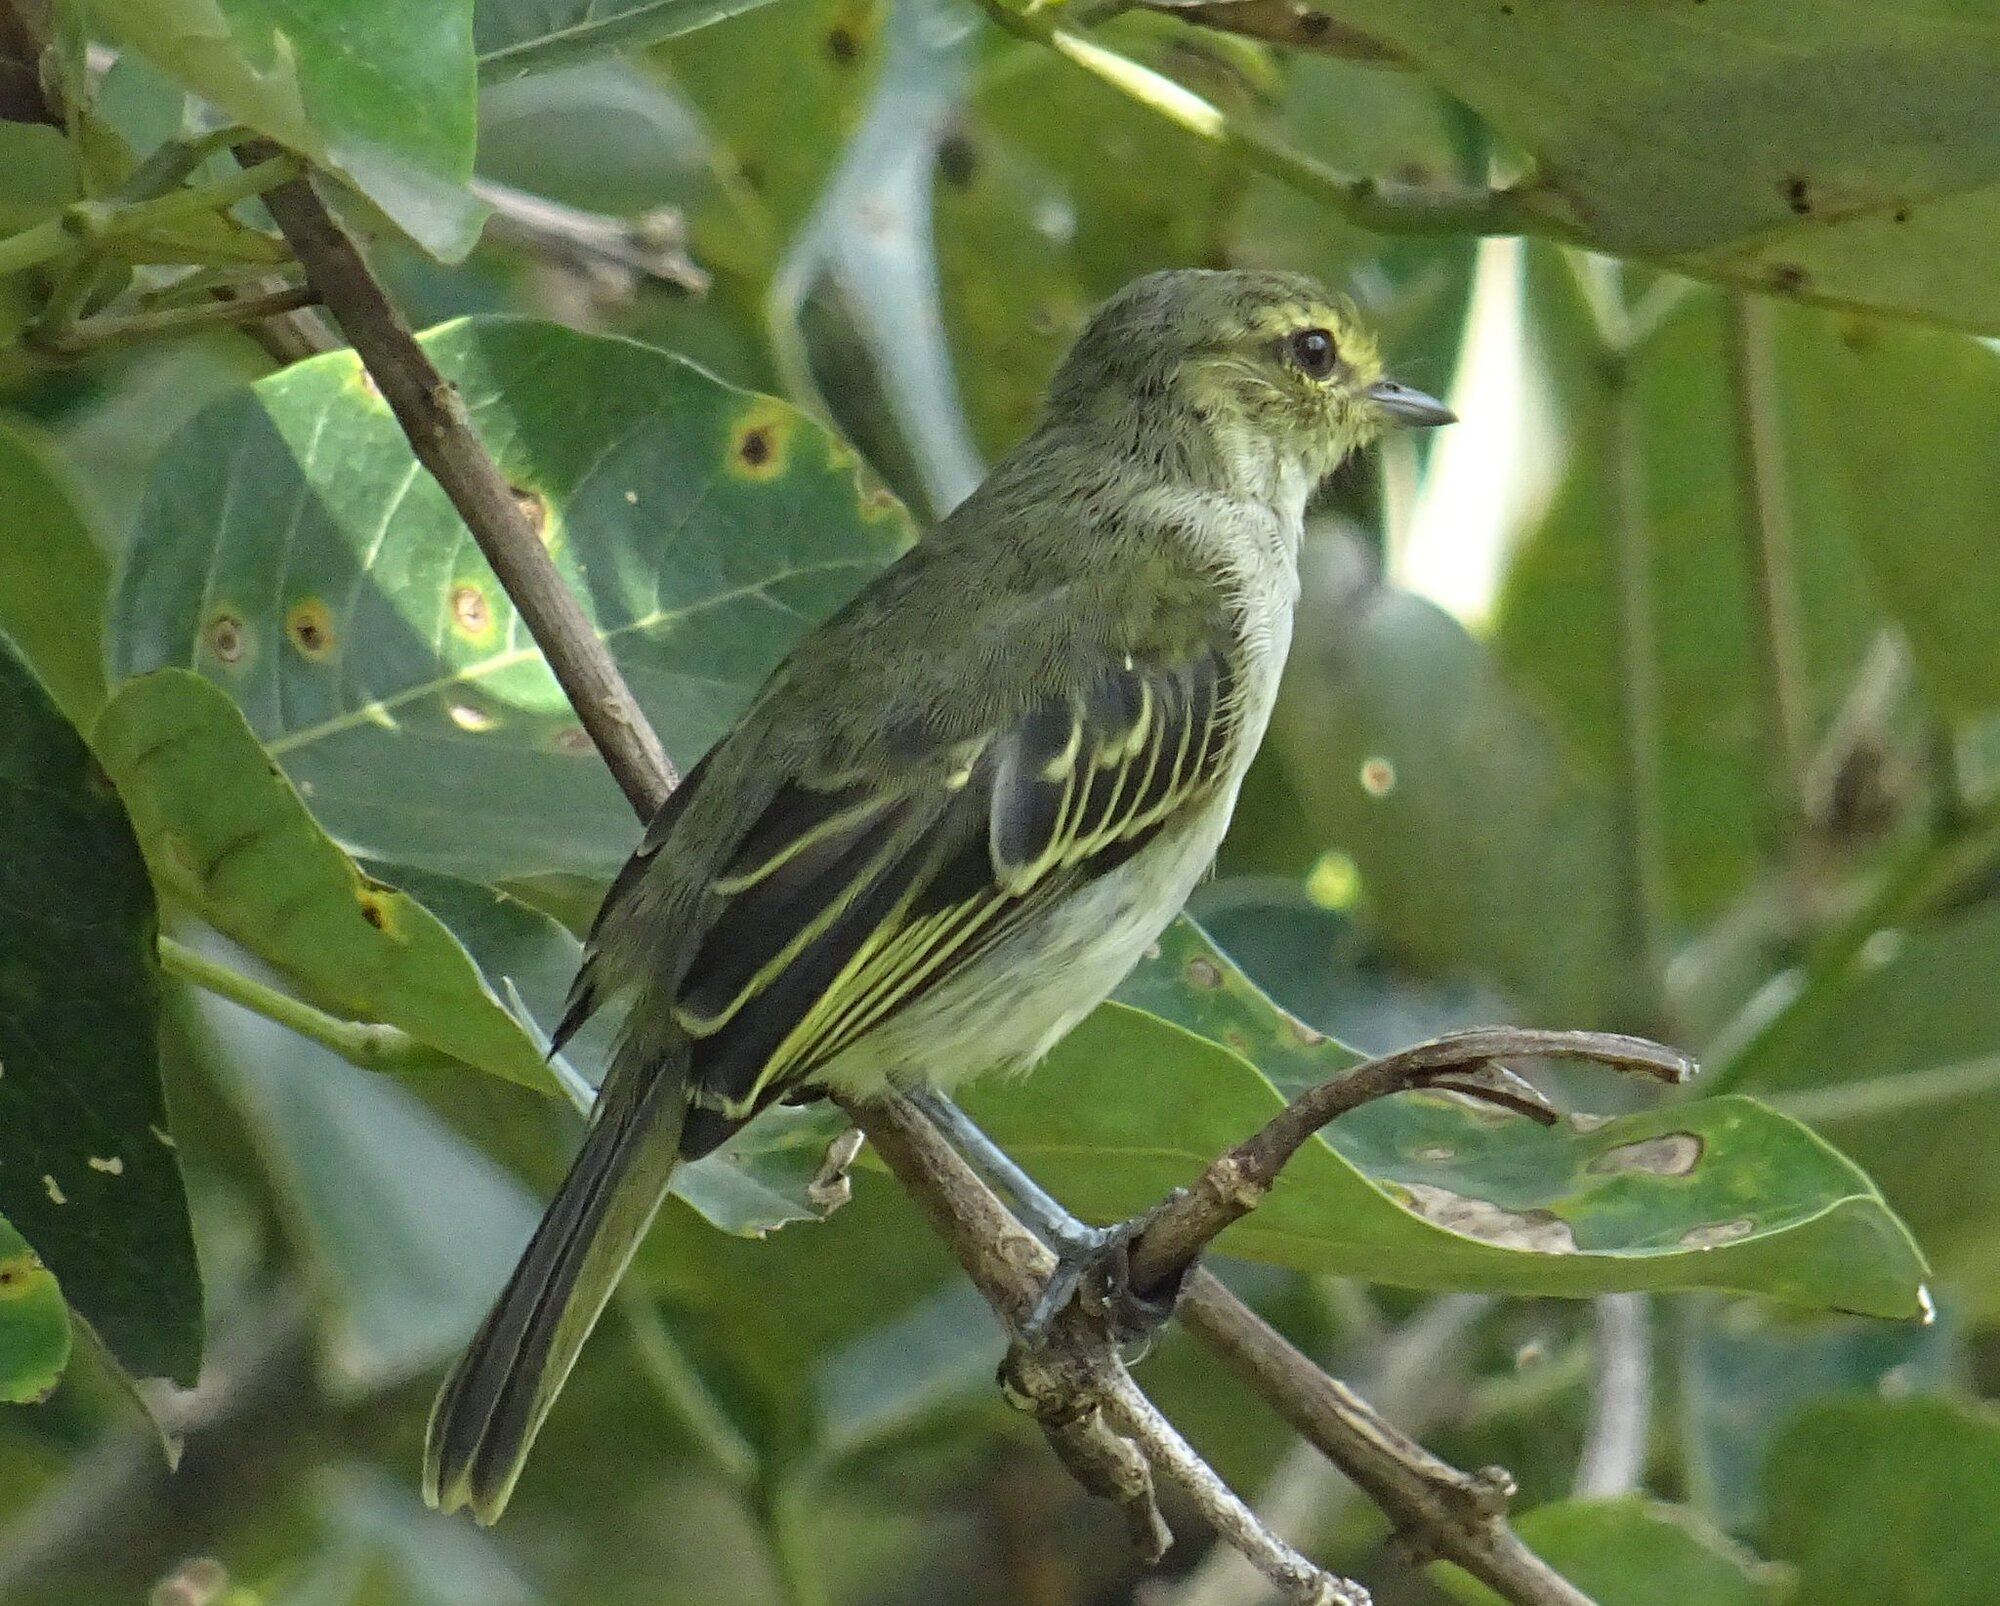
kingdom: Animalia
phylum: Chordata
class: Aves
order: Passeriformes
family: Tyrannidae
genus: Zimmerius
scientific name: Zimmerius chrysops
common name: Golden-faced tyrannulet
